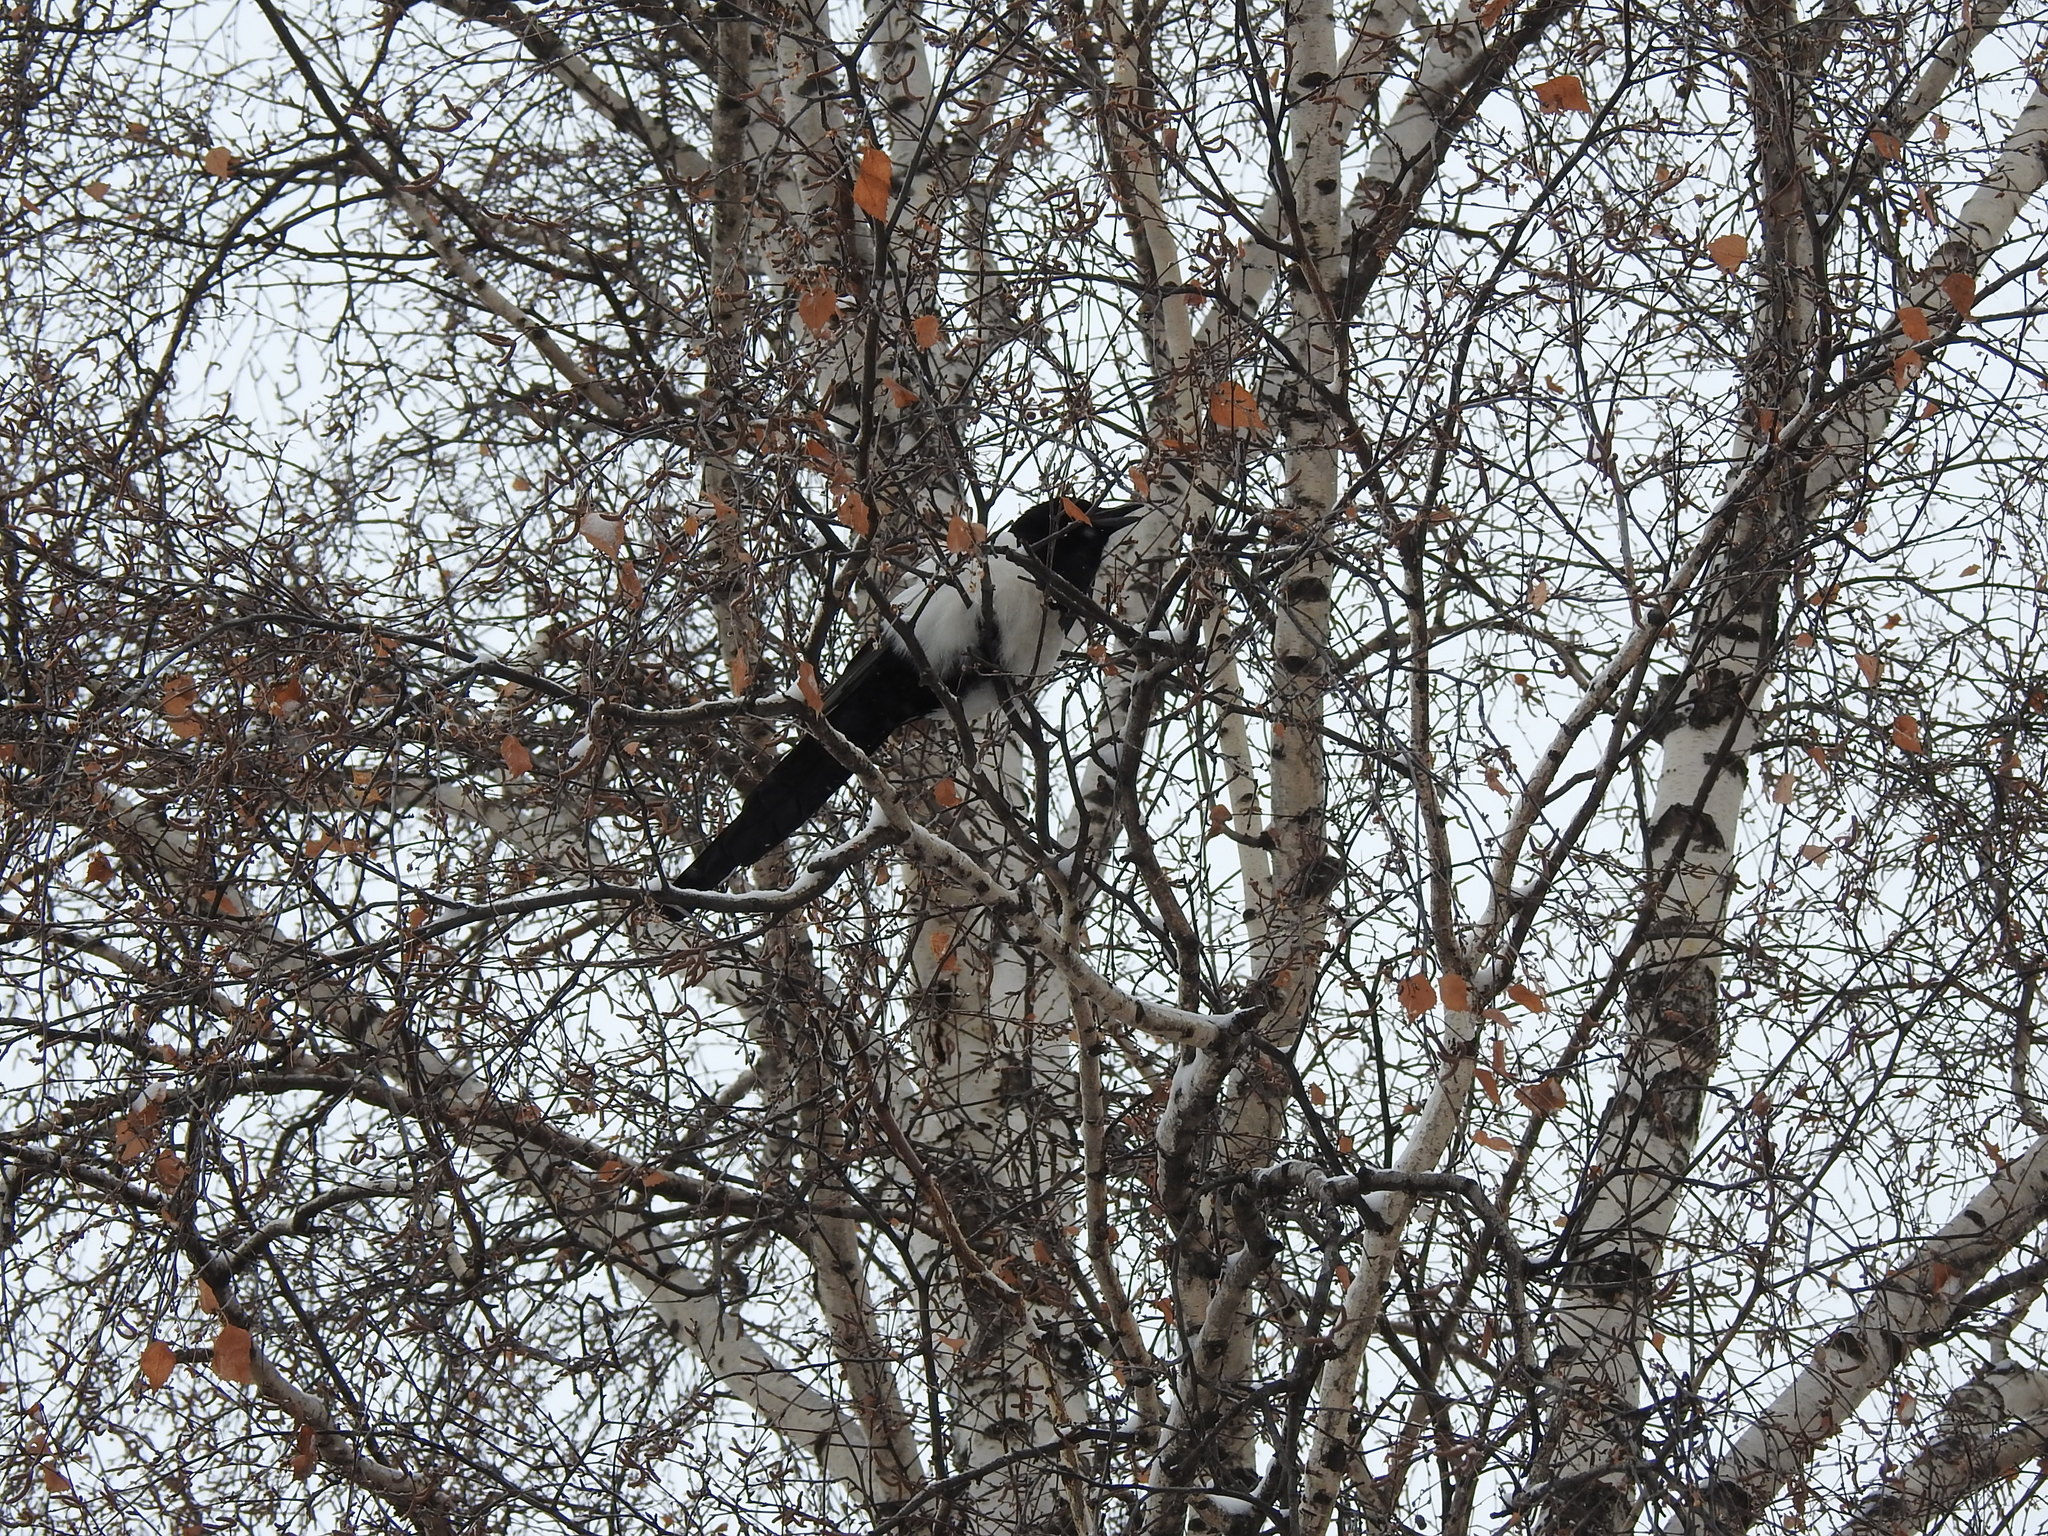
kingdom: Animalia
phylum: Chordata
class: Aves
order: Passeriformes
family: Corvidae
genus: Pica
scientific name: Pica pica
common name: Eurasian magpie
